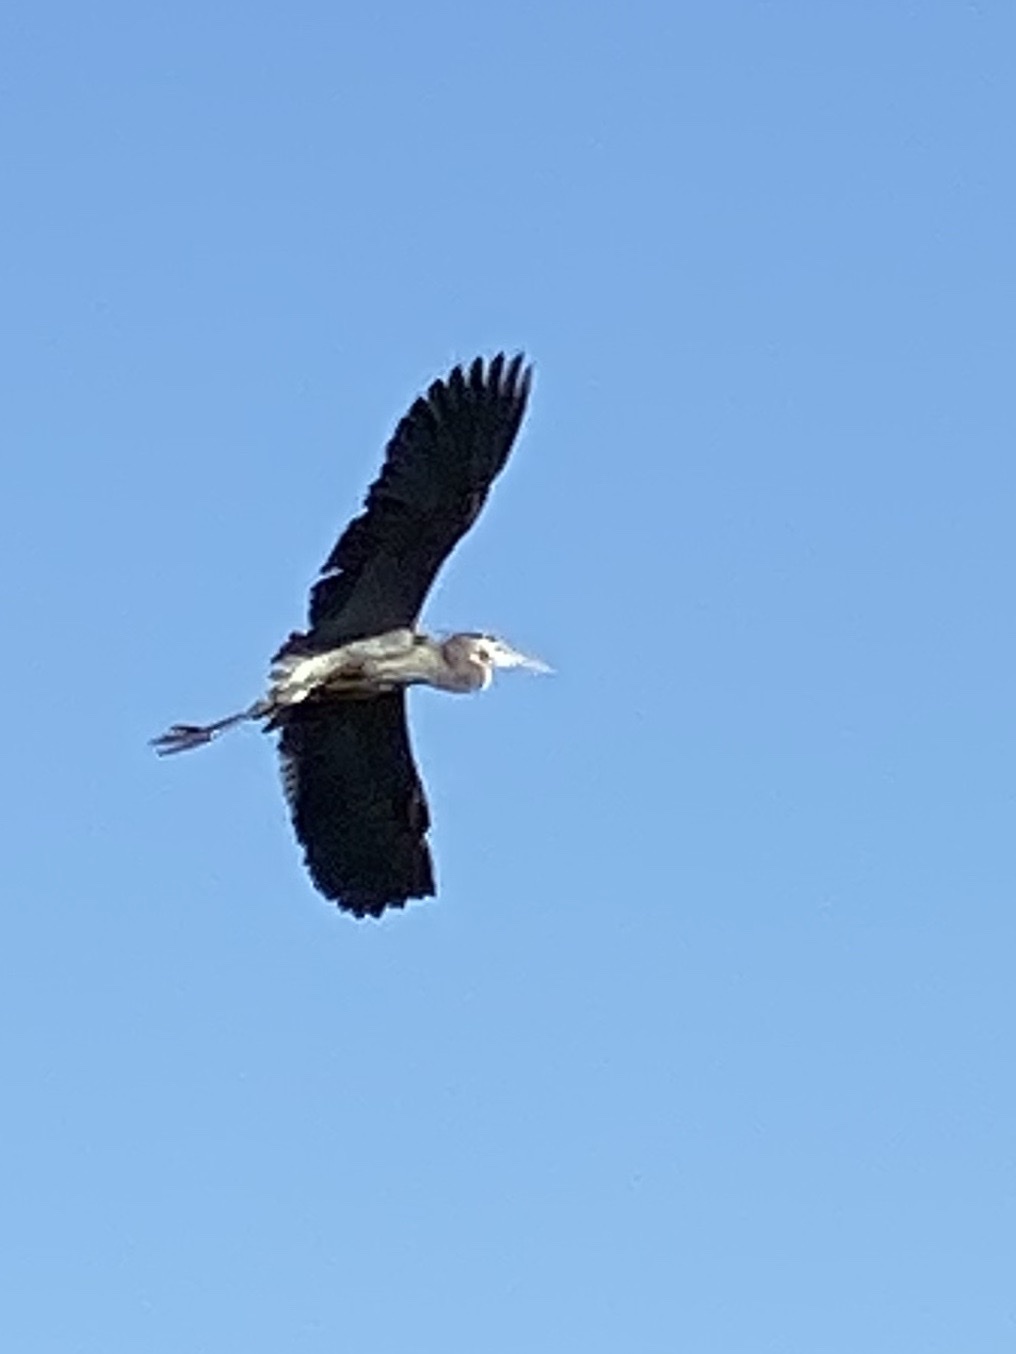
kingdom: Animalia
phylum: Chordata
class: Aves
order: Pelecaniformes
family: Ardeidae
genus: Ardea
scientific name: Ardea herodias
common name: Great blue heron
